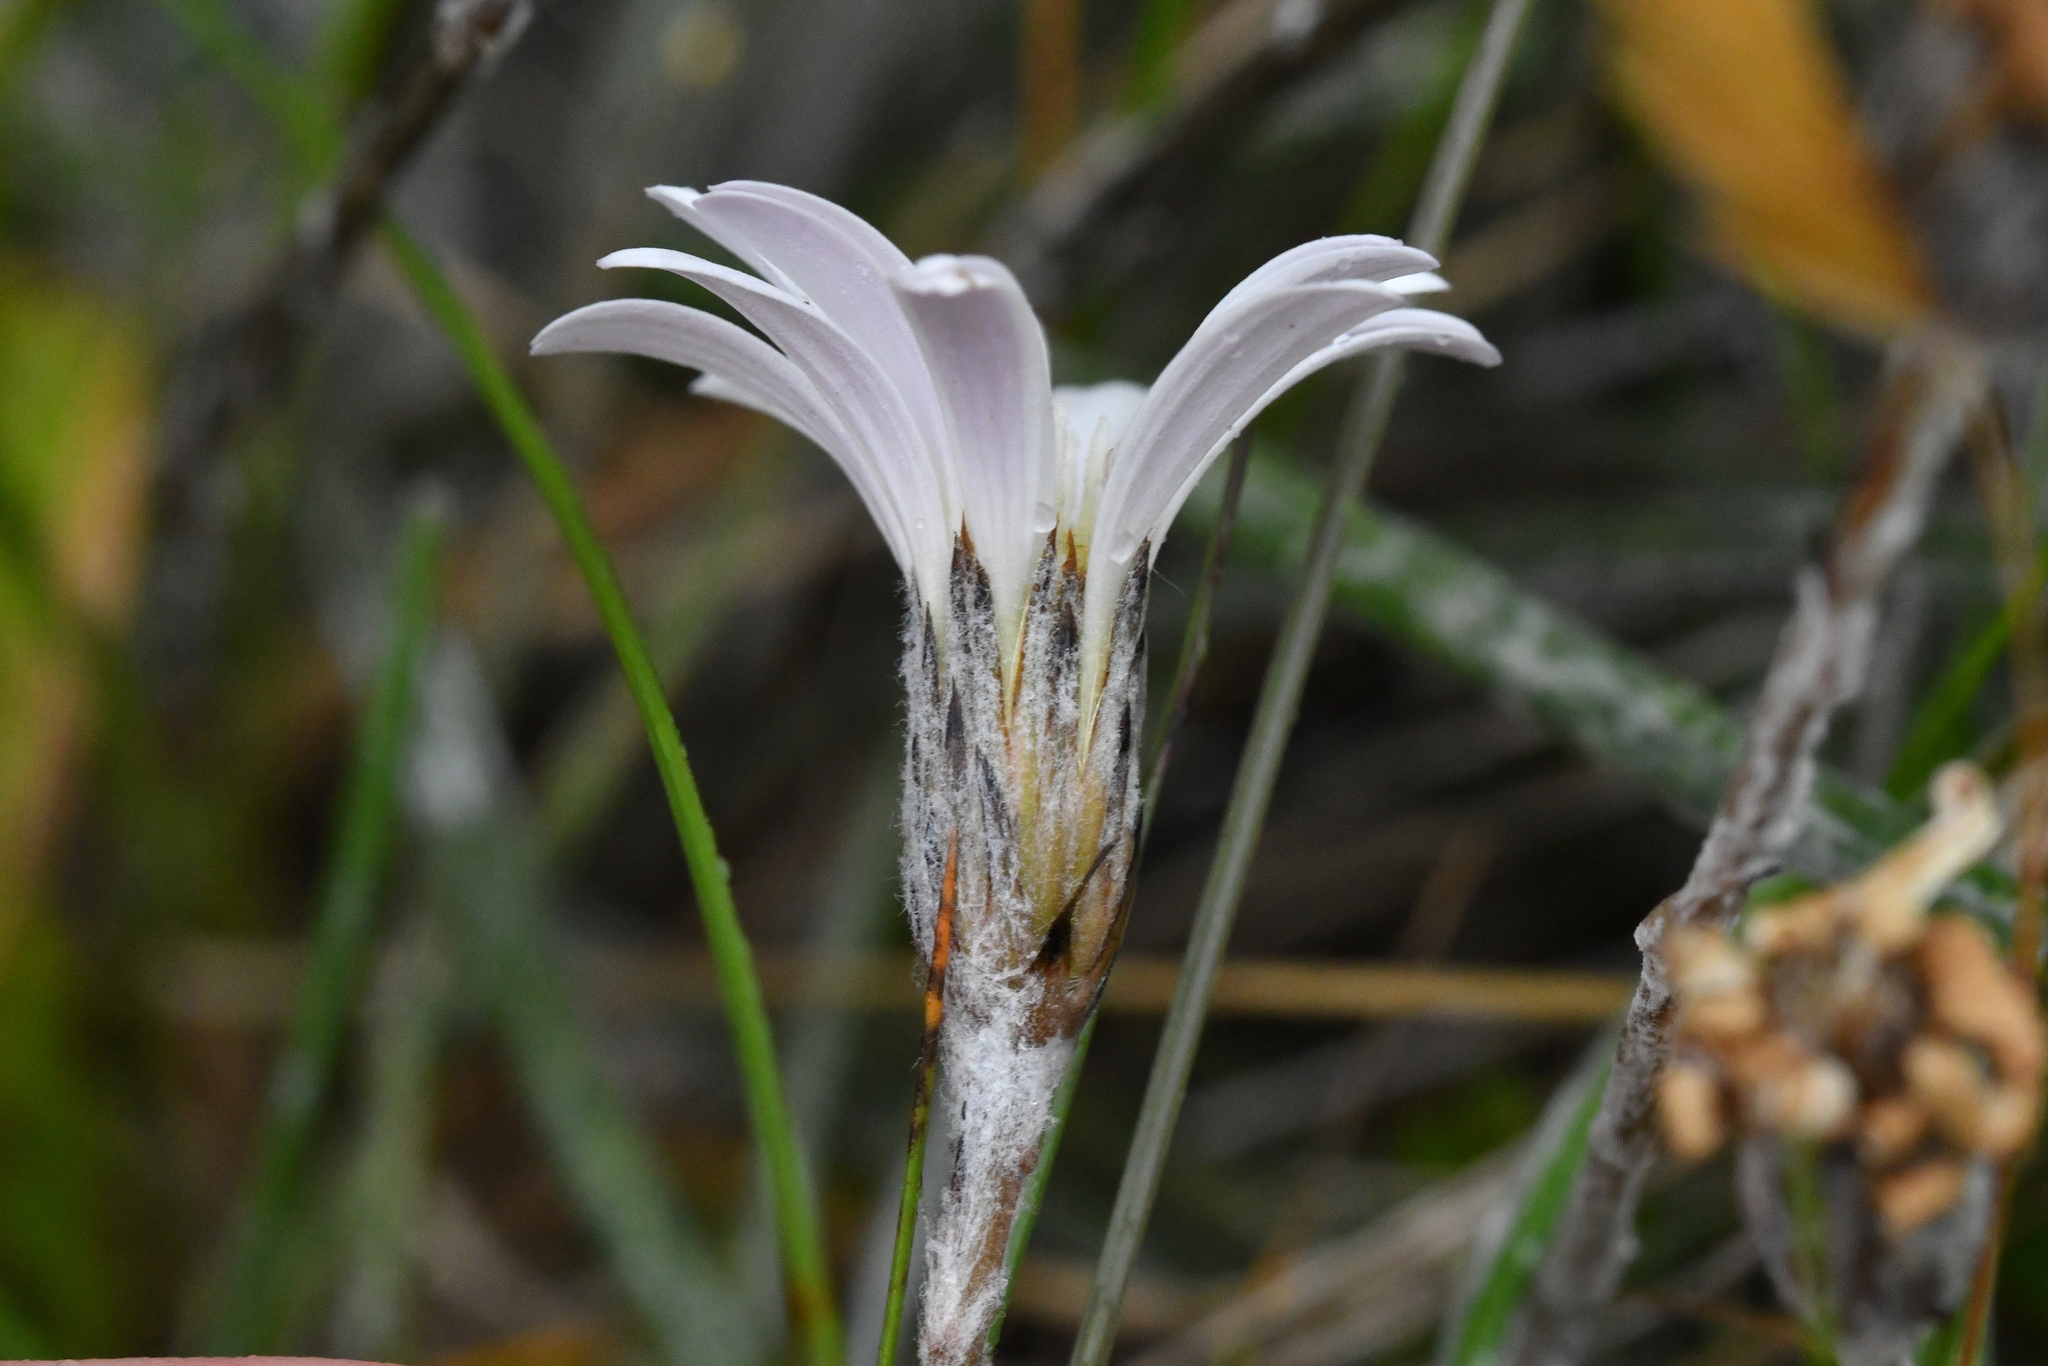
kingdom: Plantae
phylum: Tracheophyta
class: Magnoliopsida
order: Asterales
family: Asteraceae
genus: Celmisia
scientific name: Celmisia gracilenta
